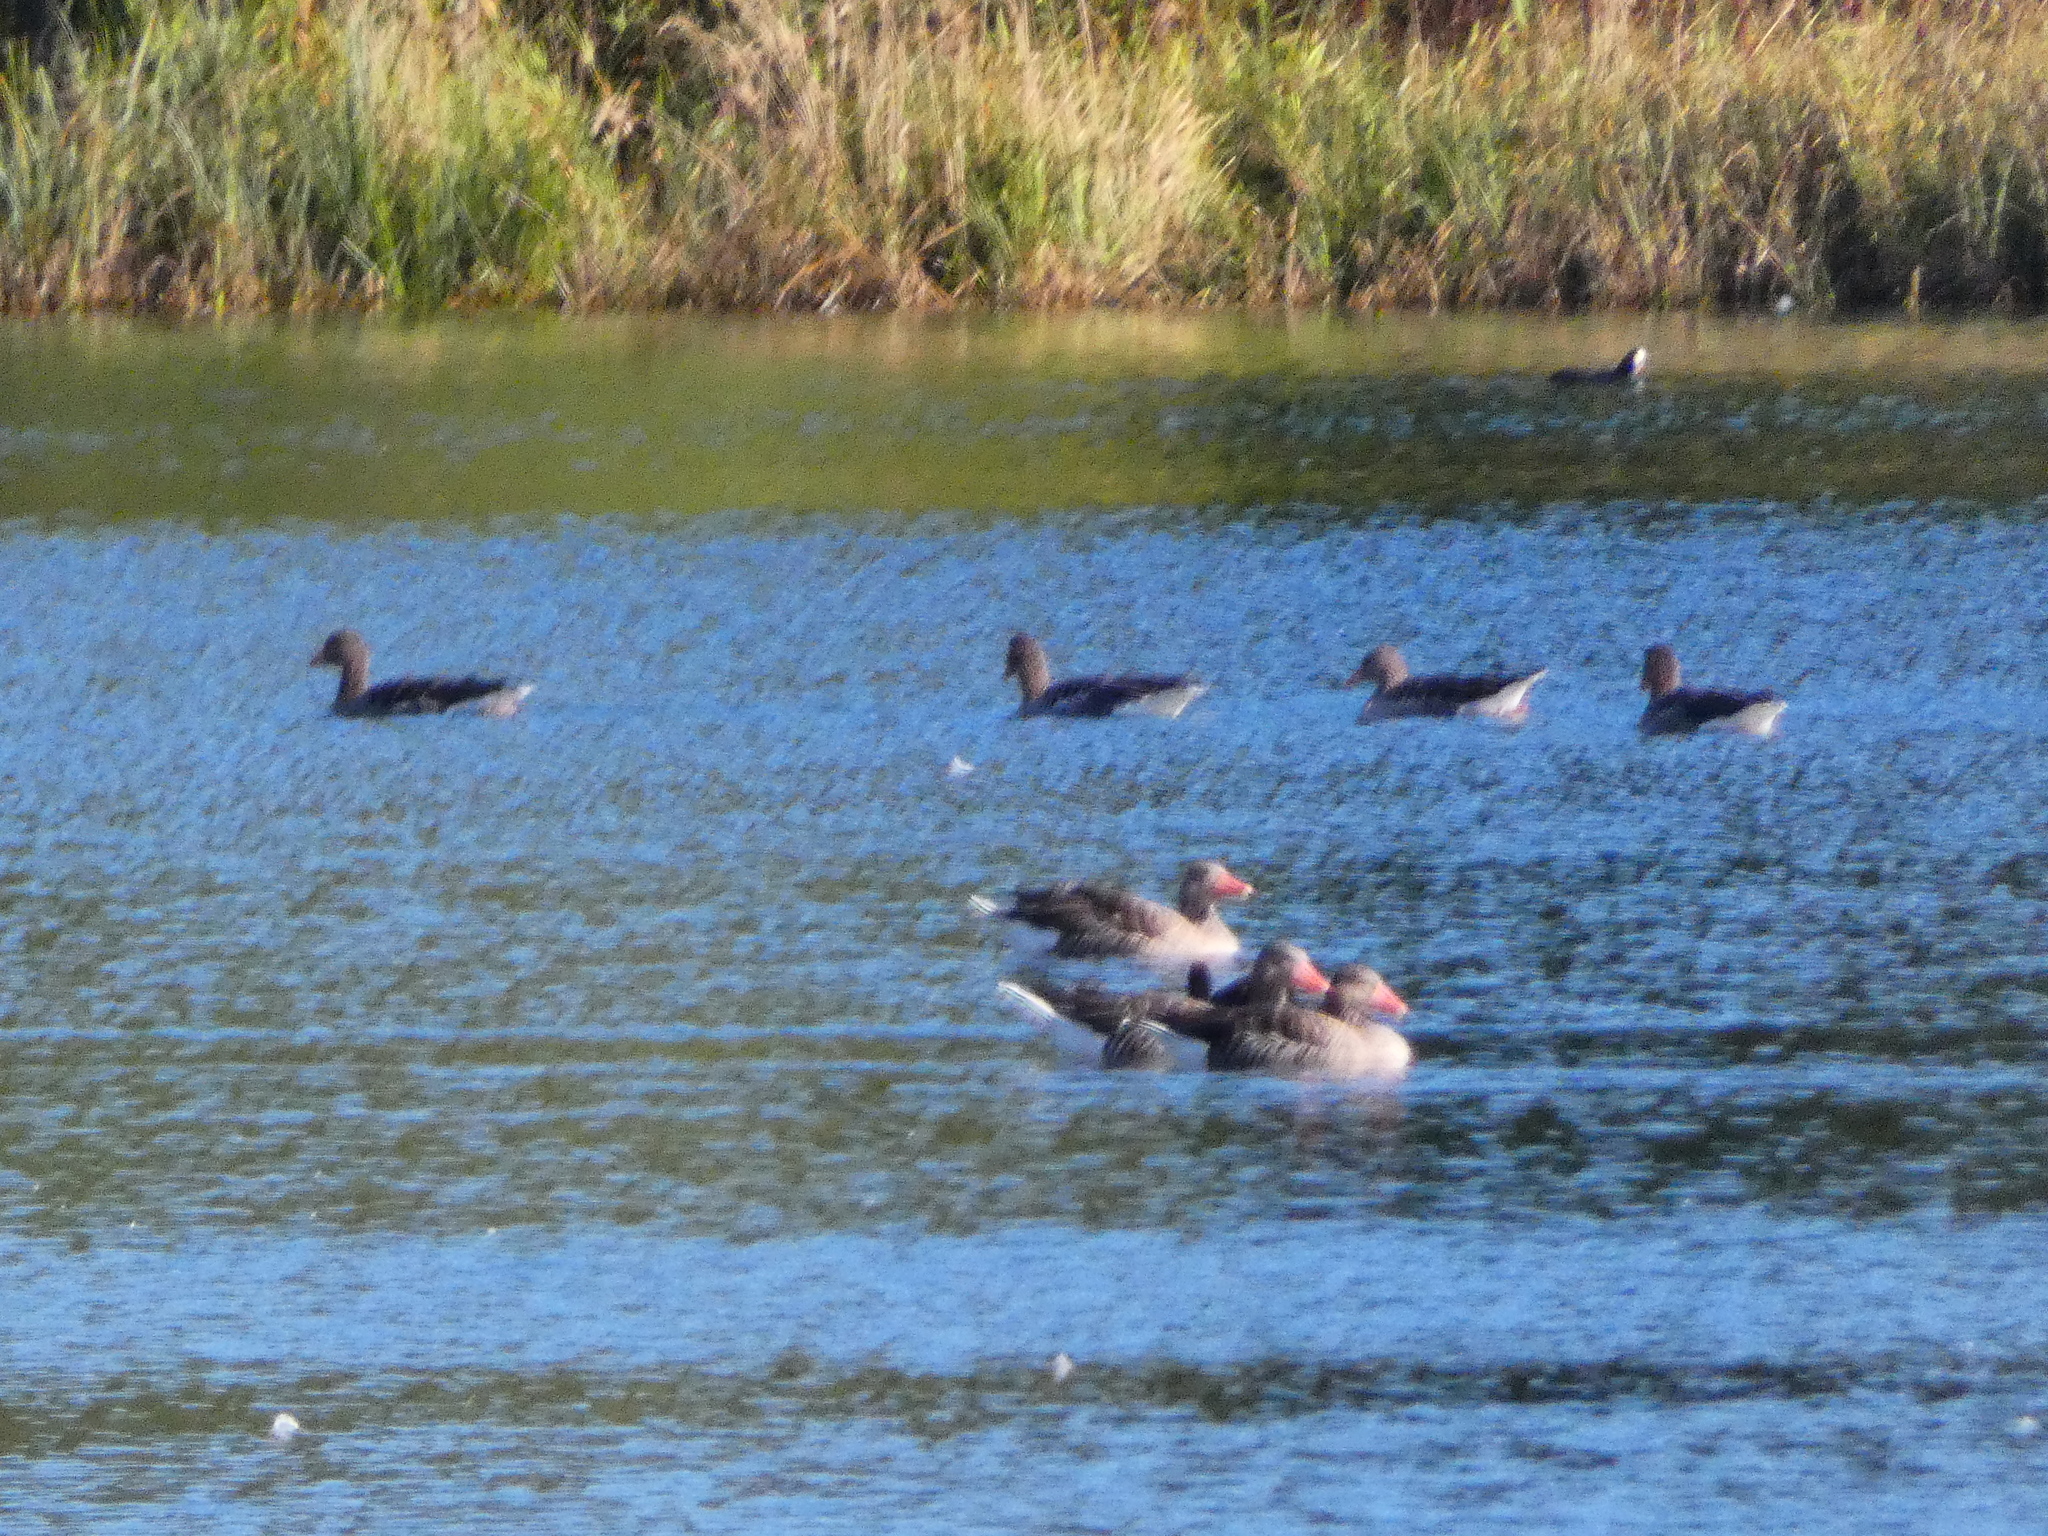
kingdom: Animalia
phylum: Chordata
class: Aves
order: Anseriformes
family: Anatidae
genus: Anser
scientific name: Anser anser
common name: Greylag goose
